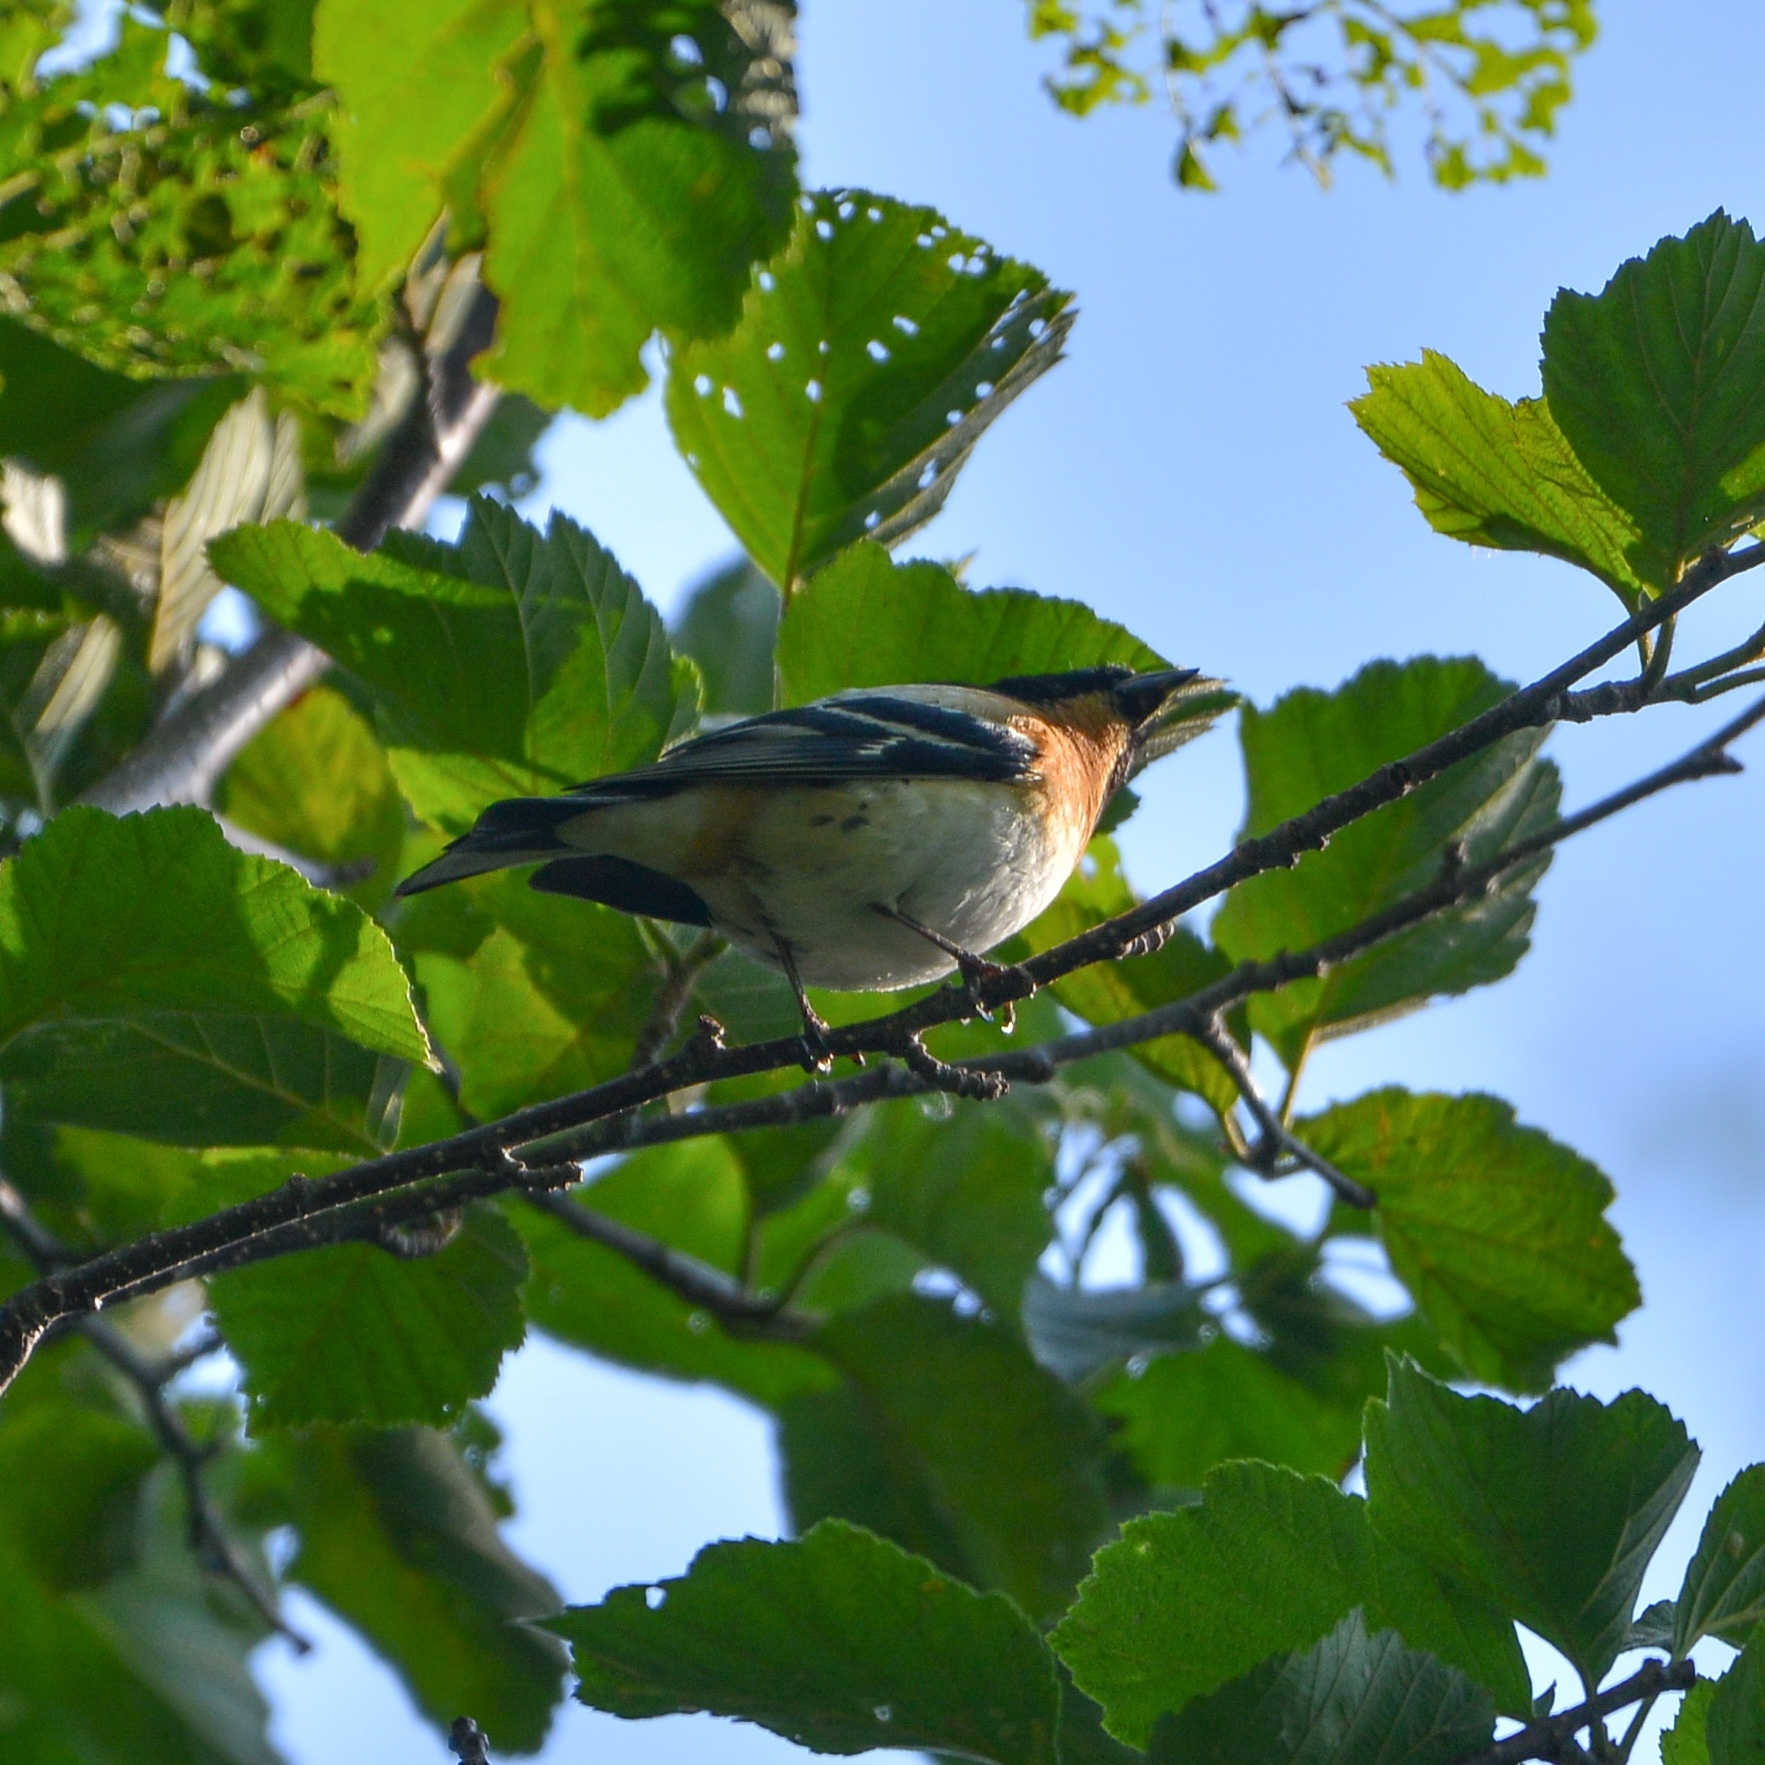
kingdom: Animalia
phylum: Chordata
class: Aves
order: Passeriformes
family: Fringillidae
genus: Fringilla
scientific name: Fringilla montifringilla
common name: Brambling
